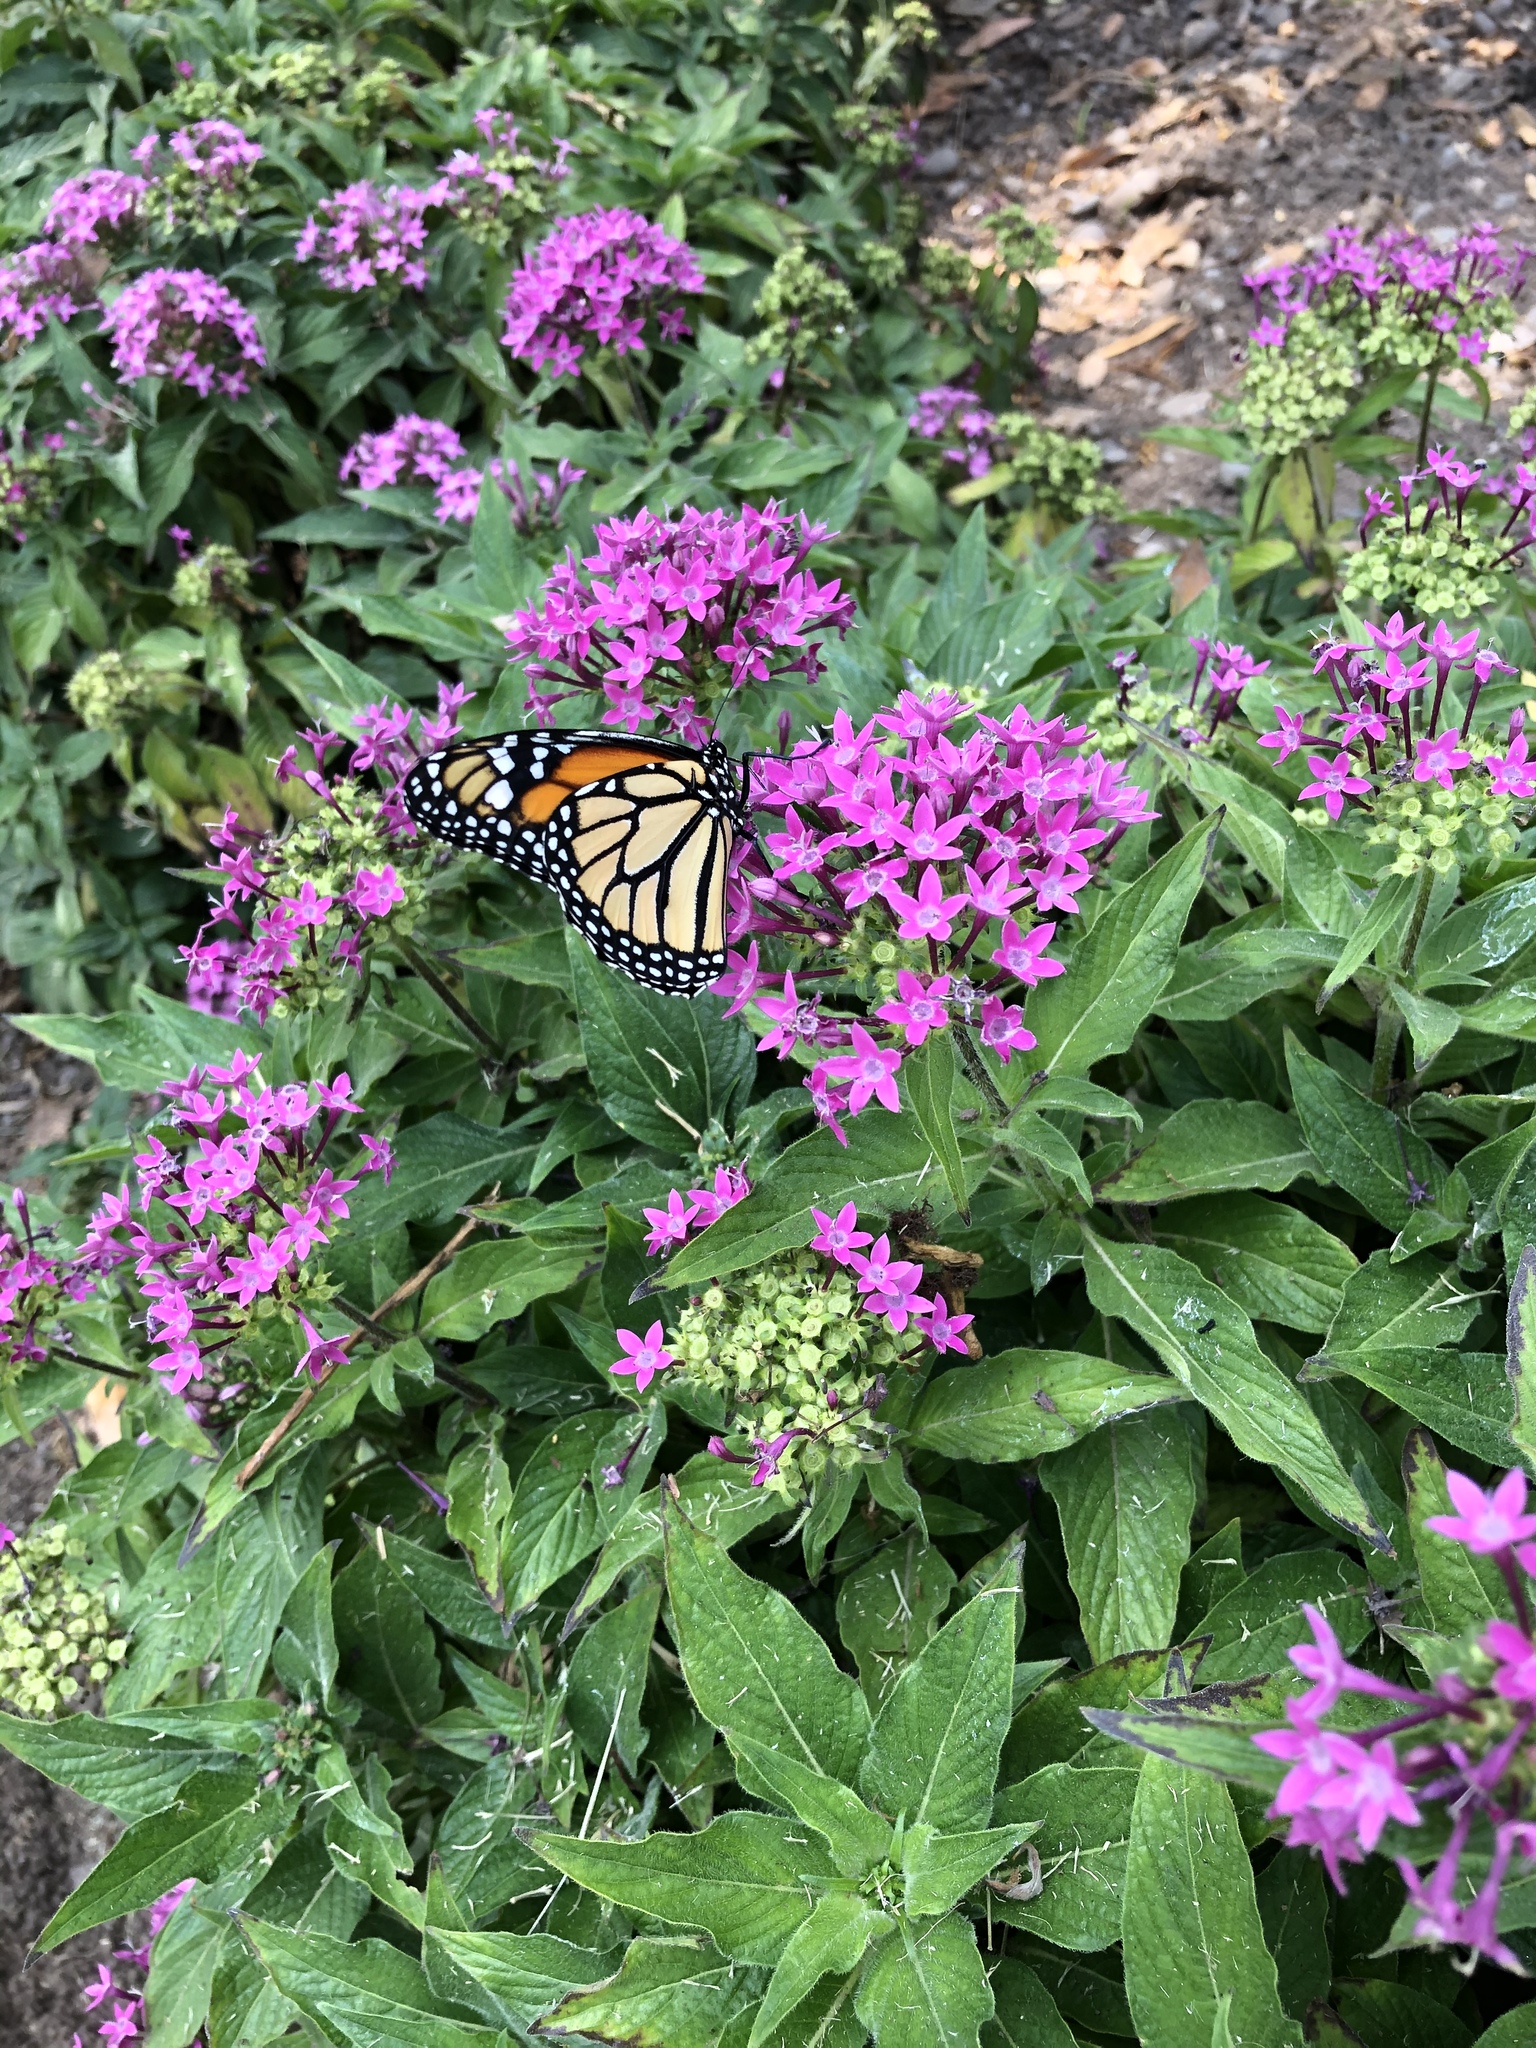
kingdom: Animalia
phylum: Arthropoda
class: Insecta
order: Lepidoptera
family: Nymphalidae
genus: Danaus
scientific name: Danaus plexippus
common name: Monarch
